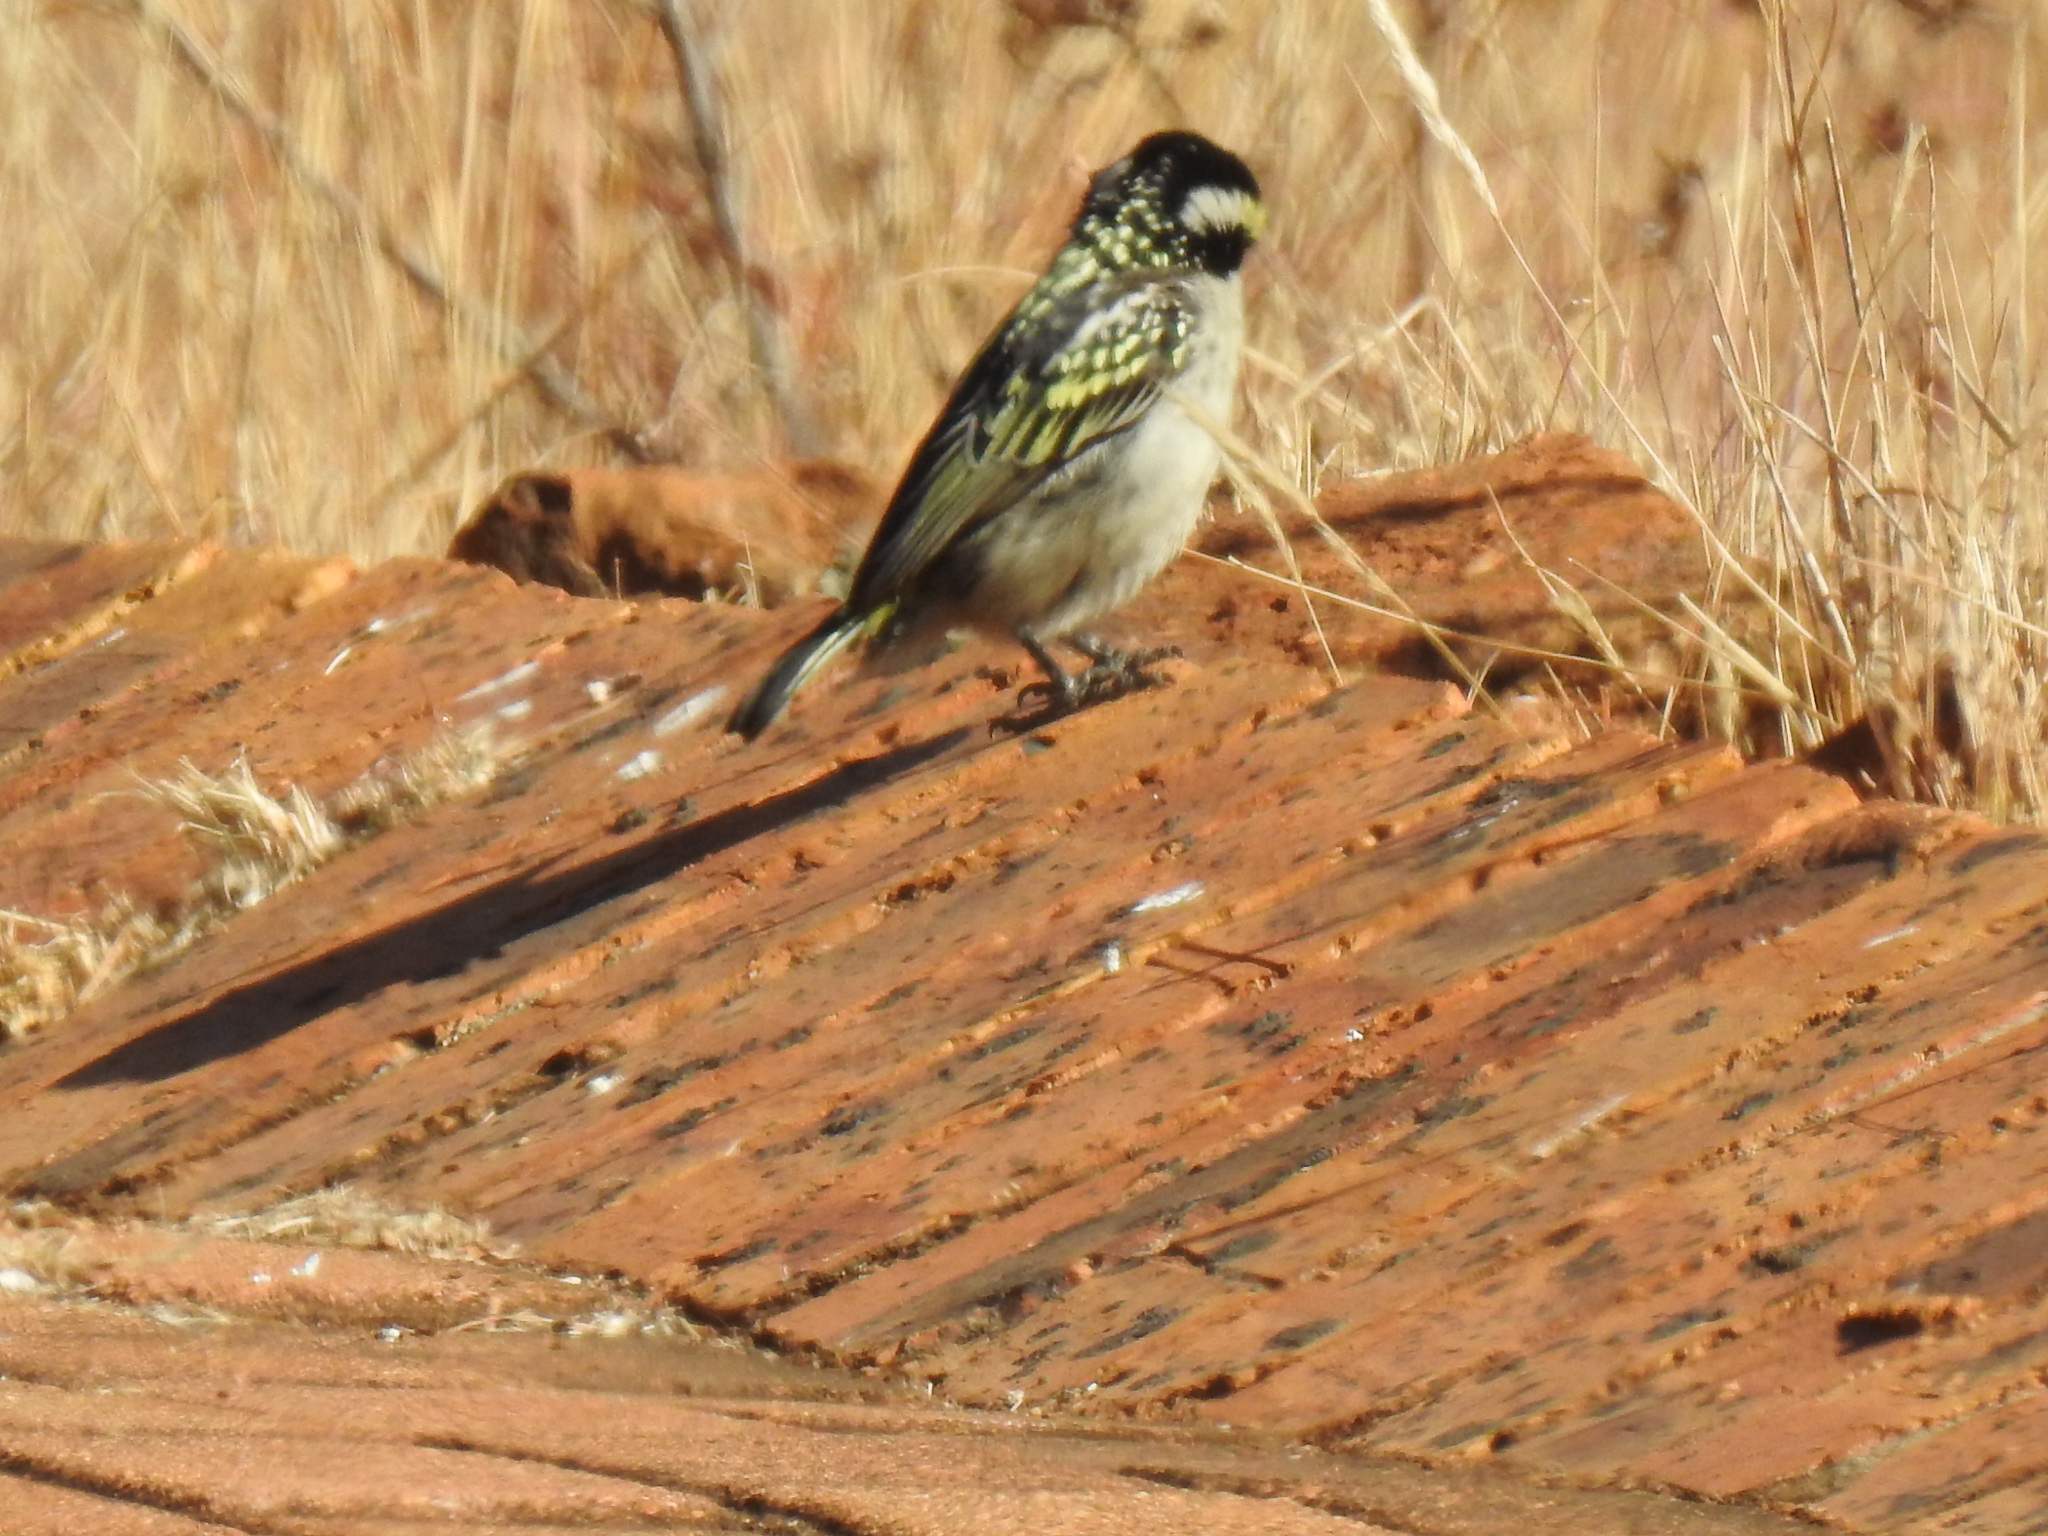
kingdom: Animalia
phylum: Chordata
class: Aves
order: Piciformes
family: Lybiidae
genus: Tricholaema
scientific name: Tricholaema leucomelas
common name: Acacia pied barbet
